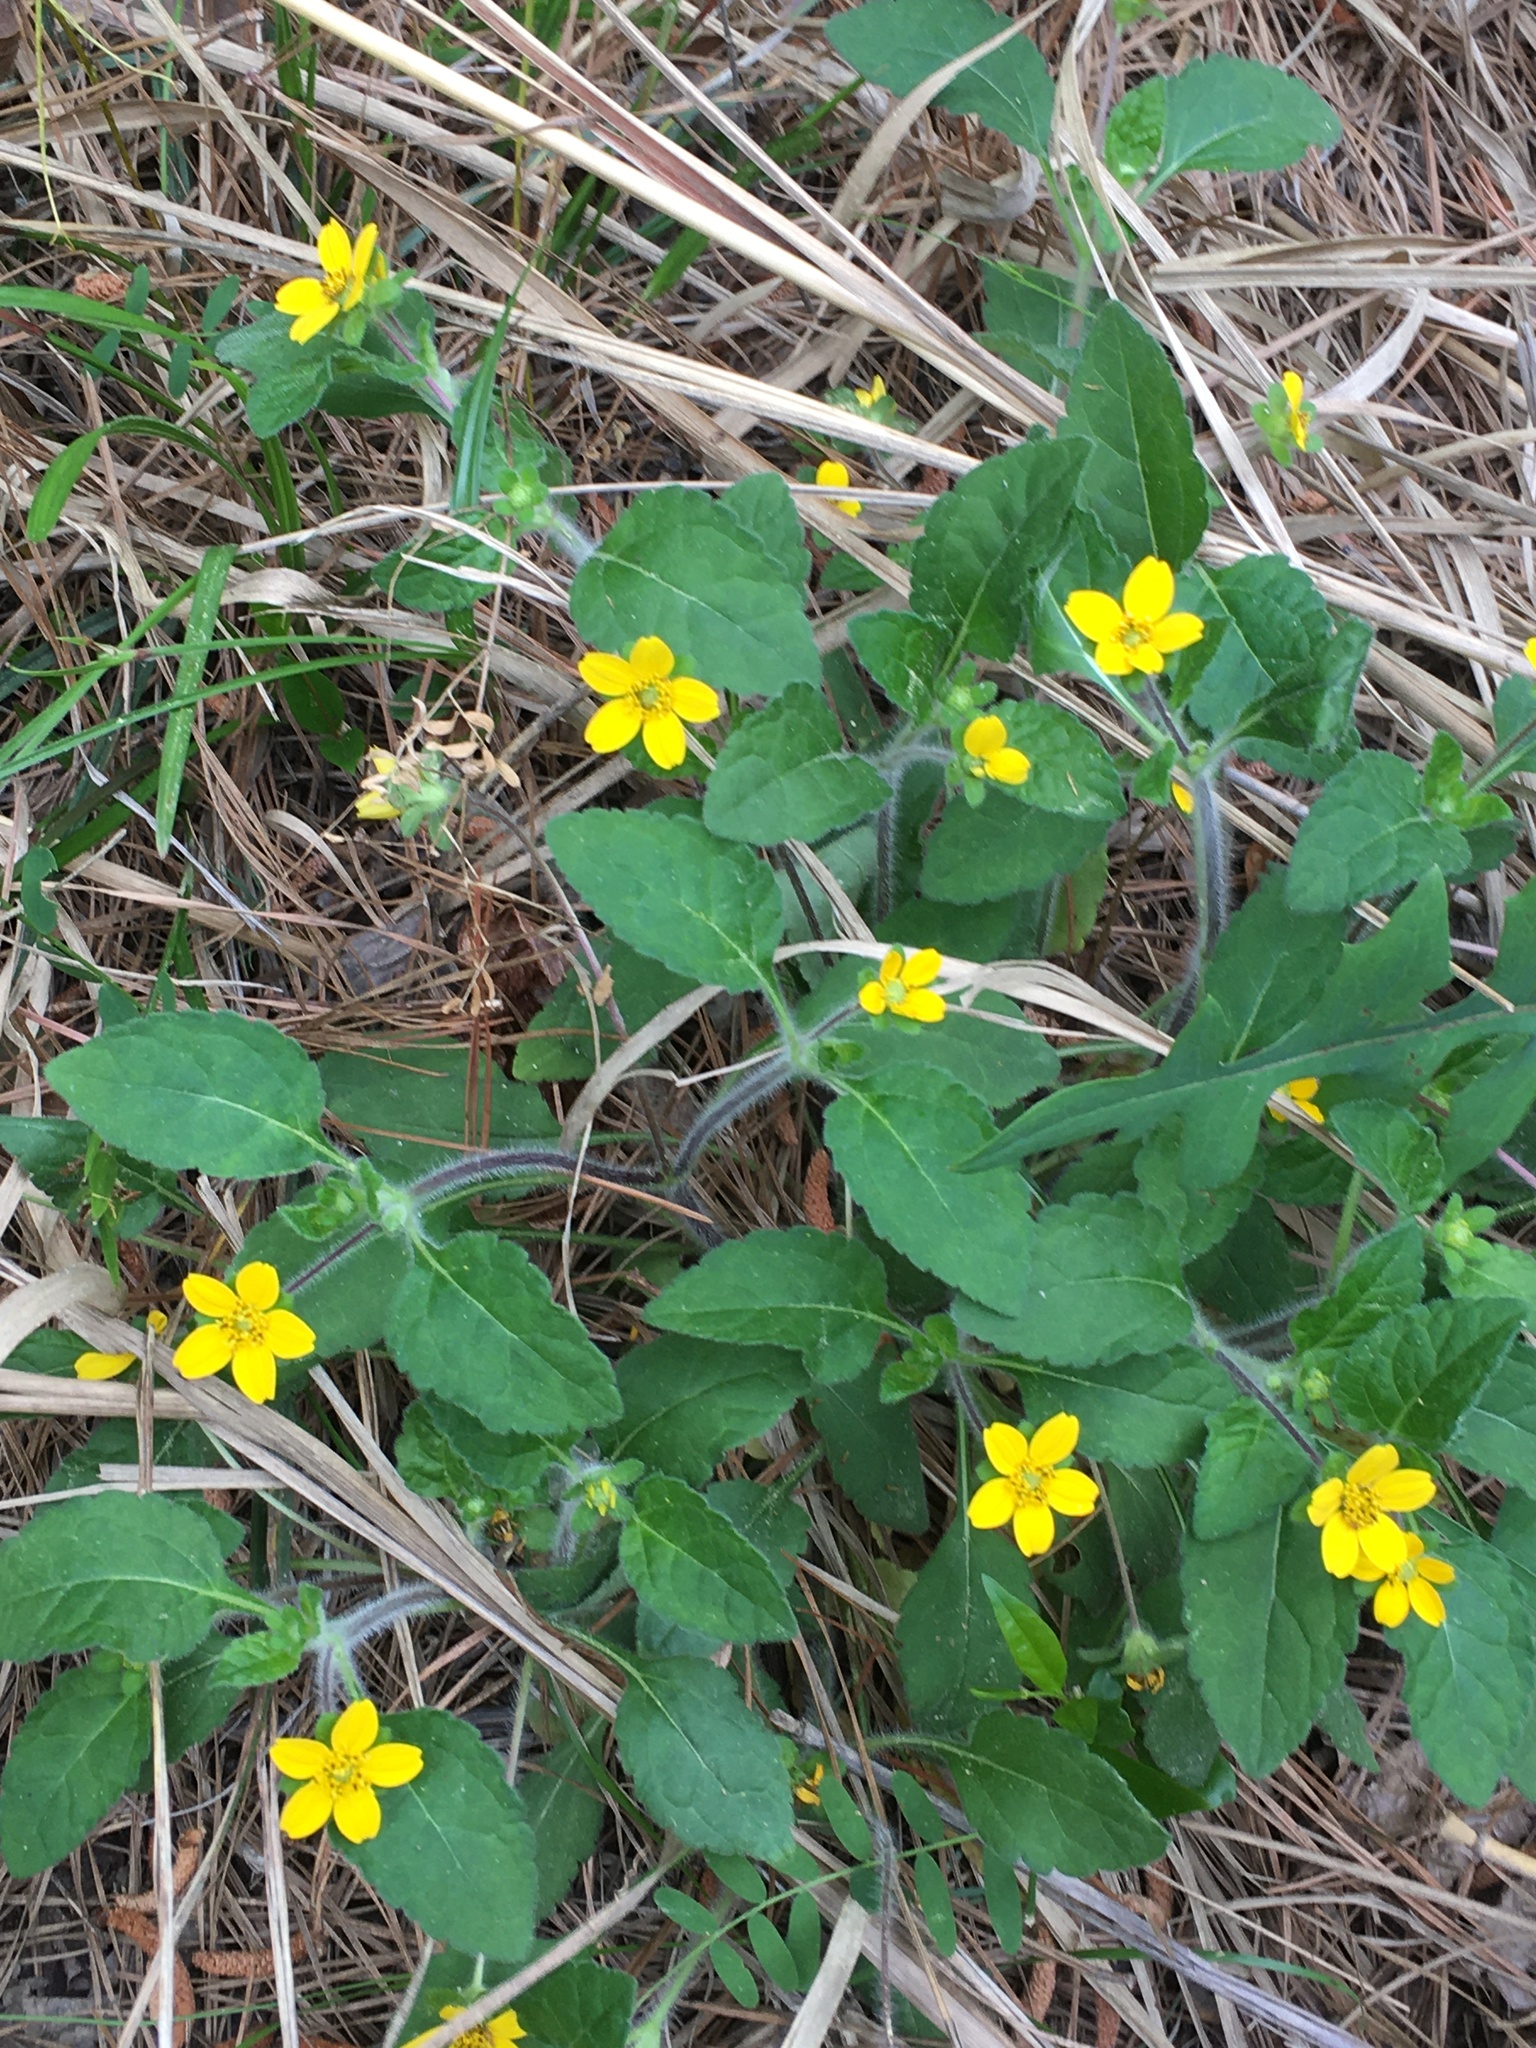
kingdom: Plantae
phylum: Tracheophyta
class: Magnoliopsida
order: Asterales
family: Asteraceae
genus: Chrysogonum
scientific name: Chrysogonum virginianum
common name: Golden-knee
